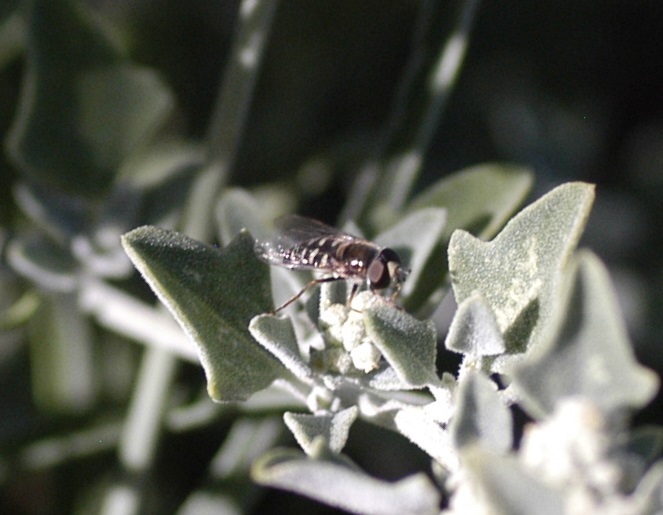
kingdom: Animalia
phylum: Arthropoda
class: Insecta
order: Diptera
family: Syrphidae
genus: Eupeodes
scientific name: Eupeodes volucris
